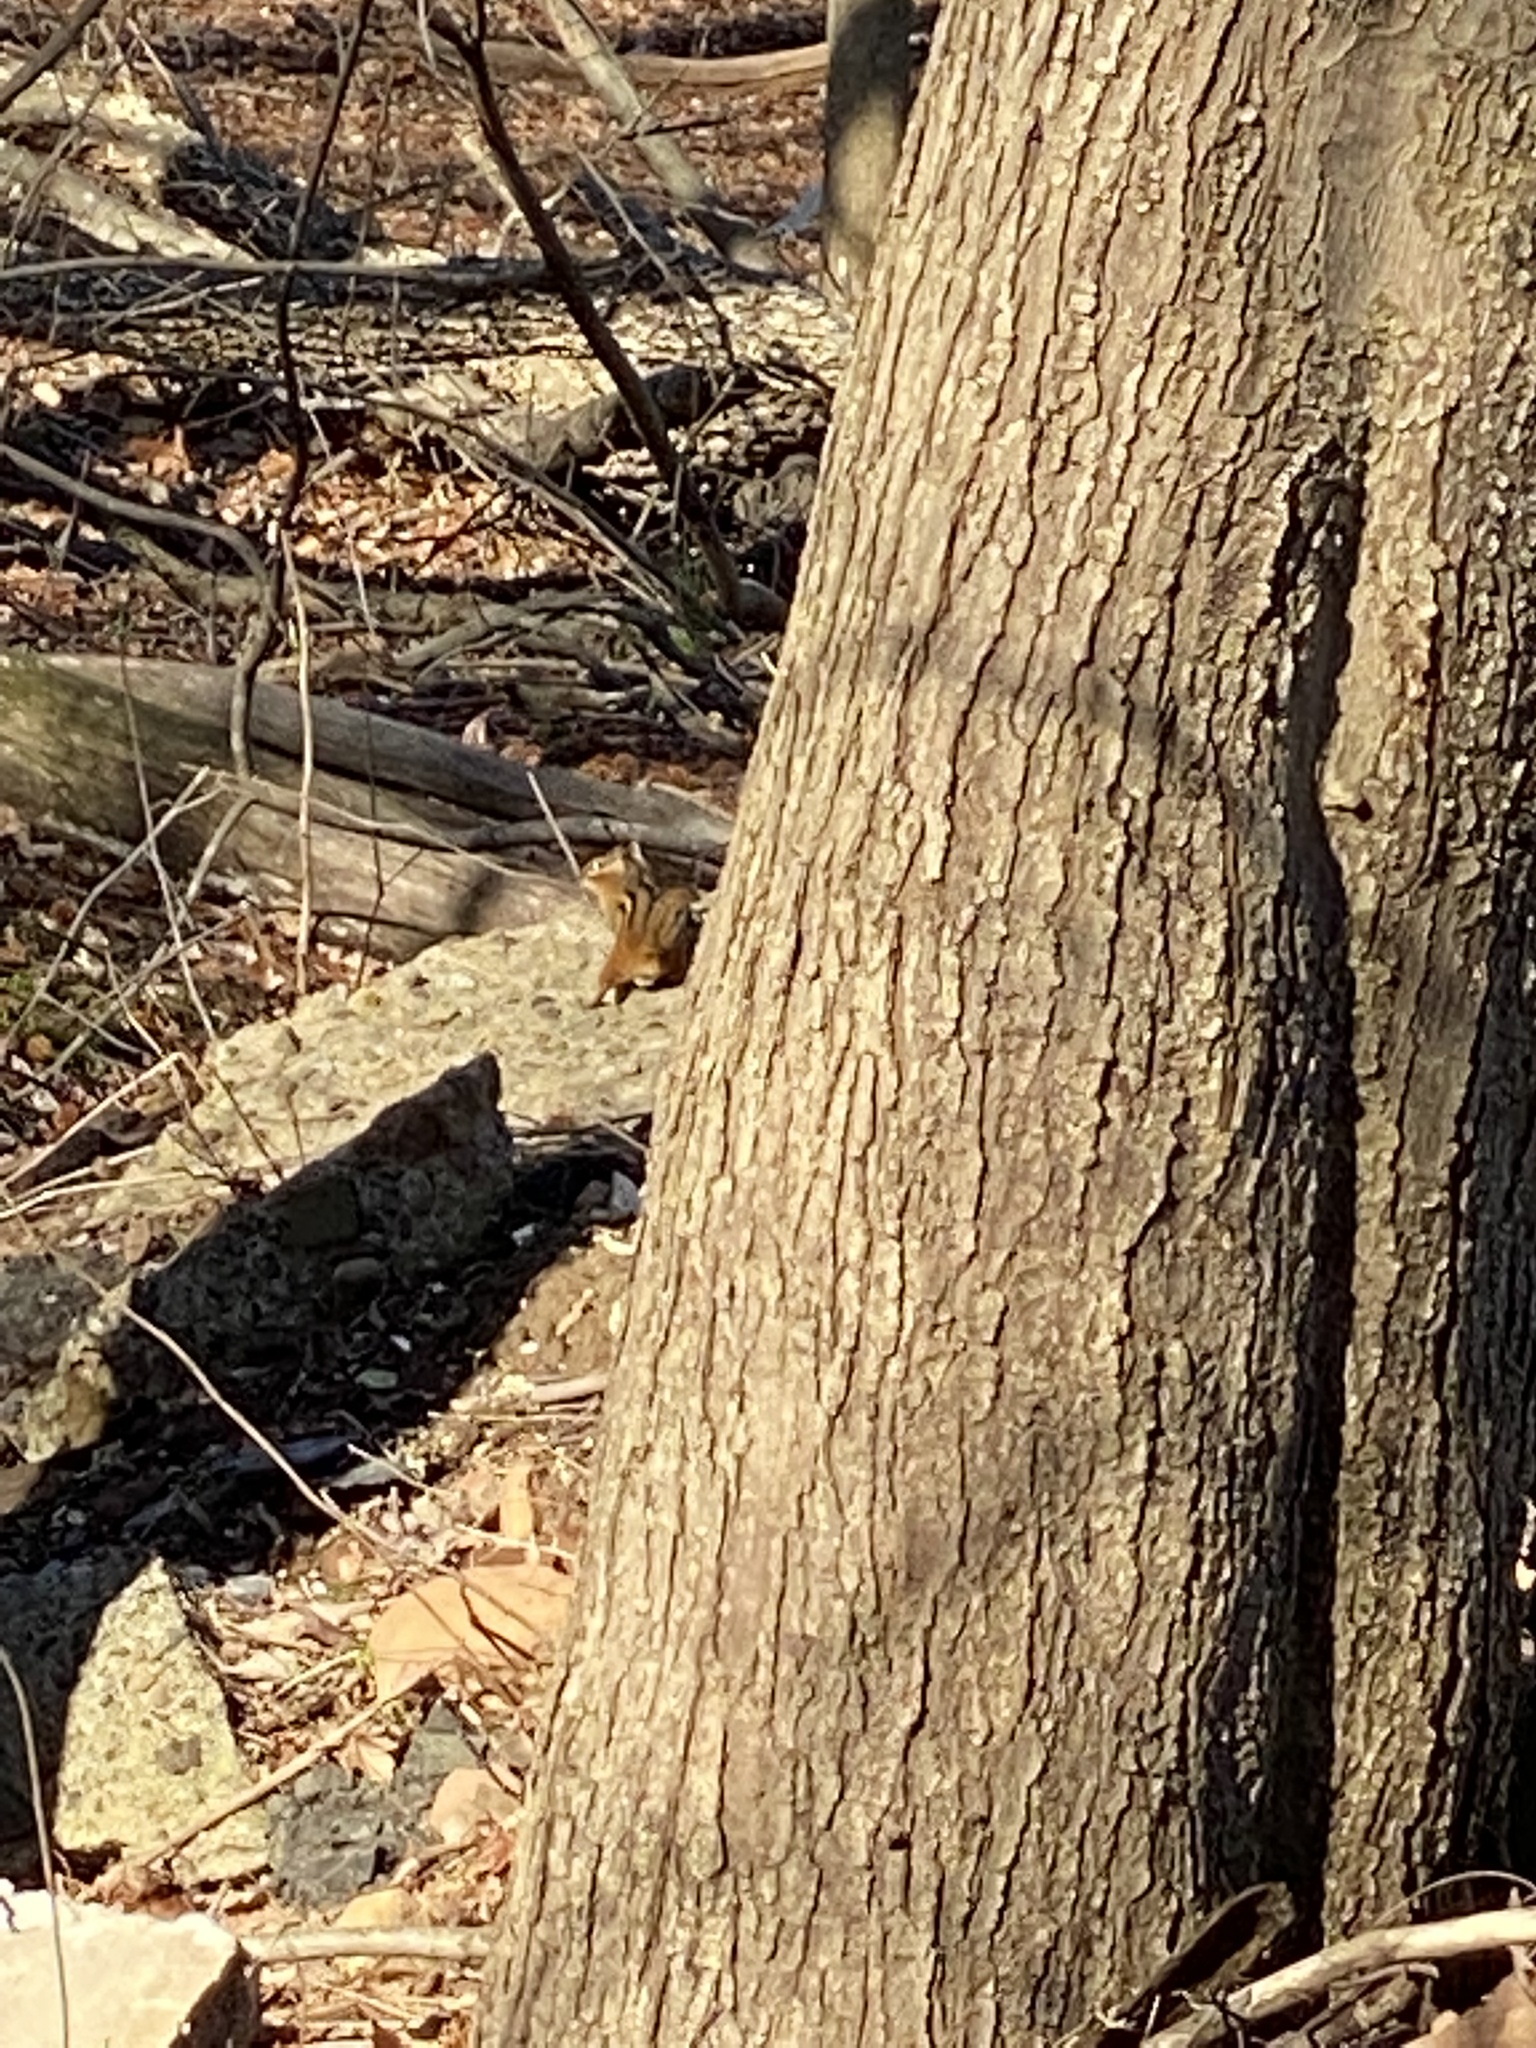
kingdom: Animalia
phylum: Chordata
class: Mammalia
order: Rodentia
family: Sciuridae
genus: Tamias
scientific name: Tamias striatus
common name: Eastern chipmunk
